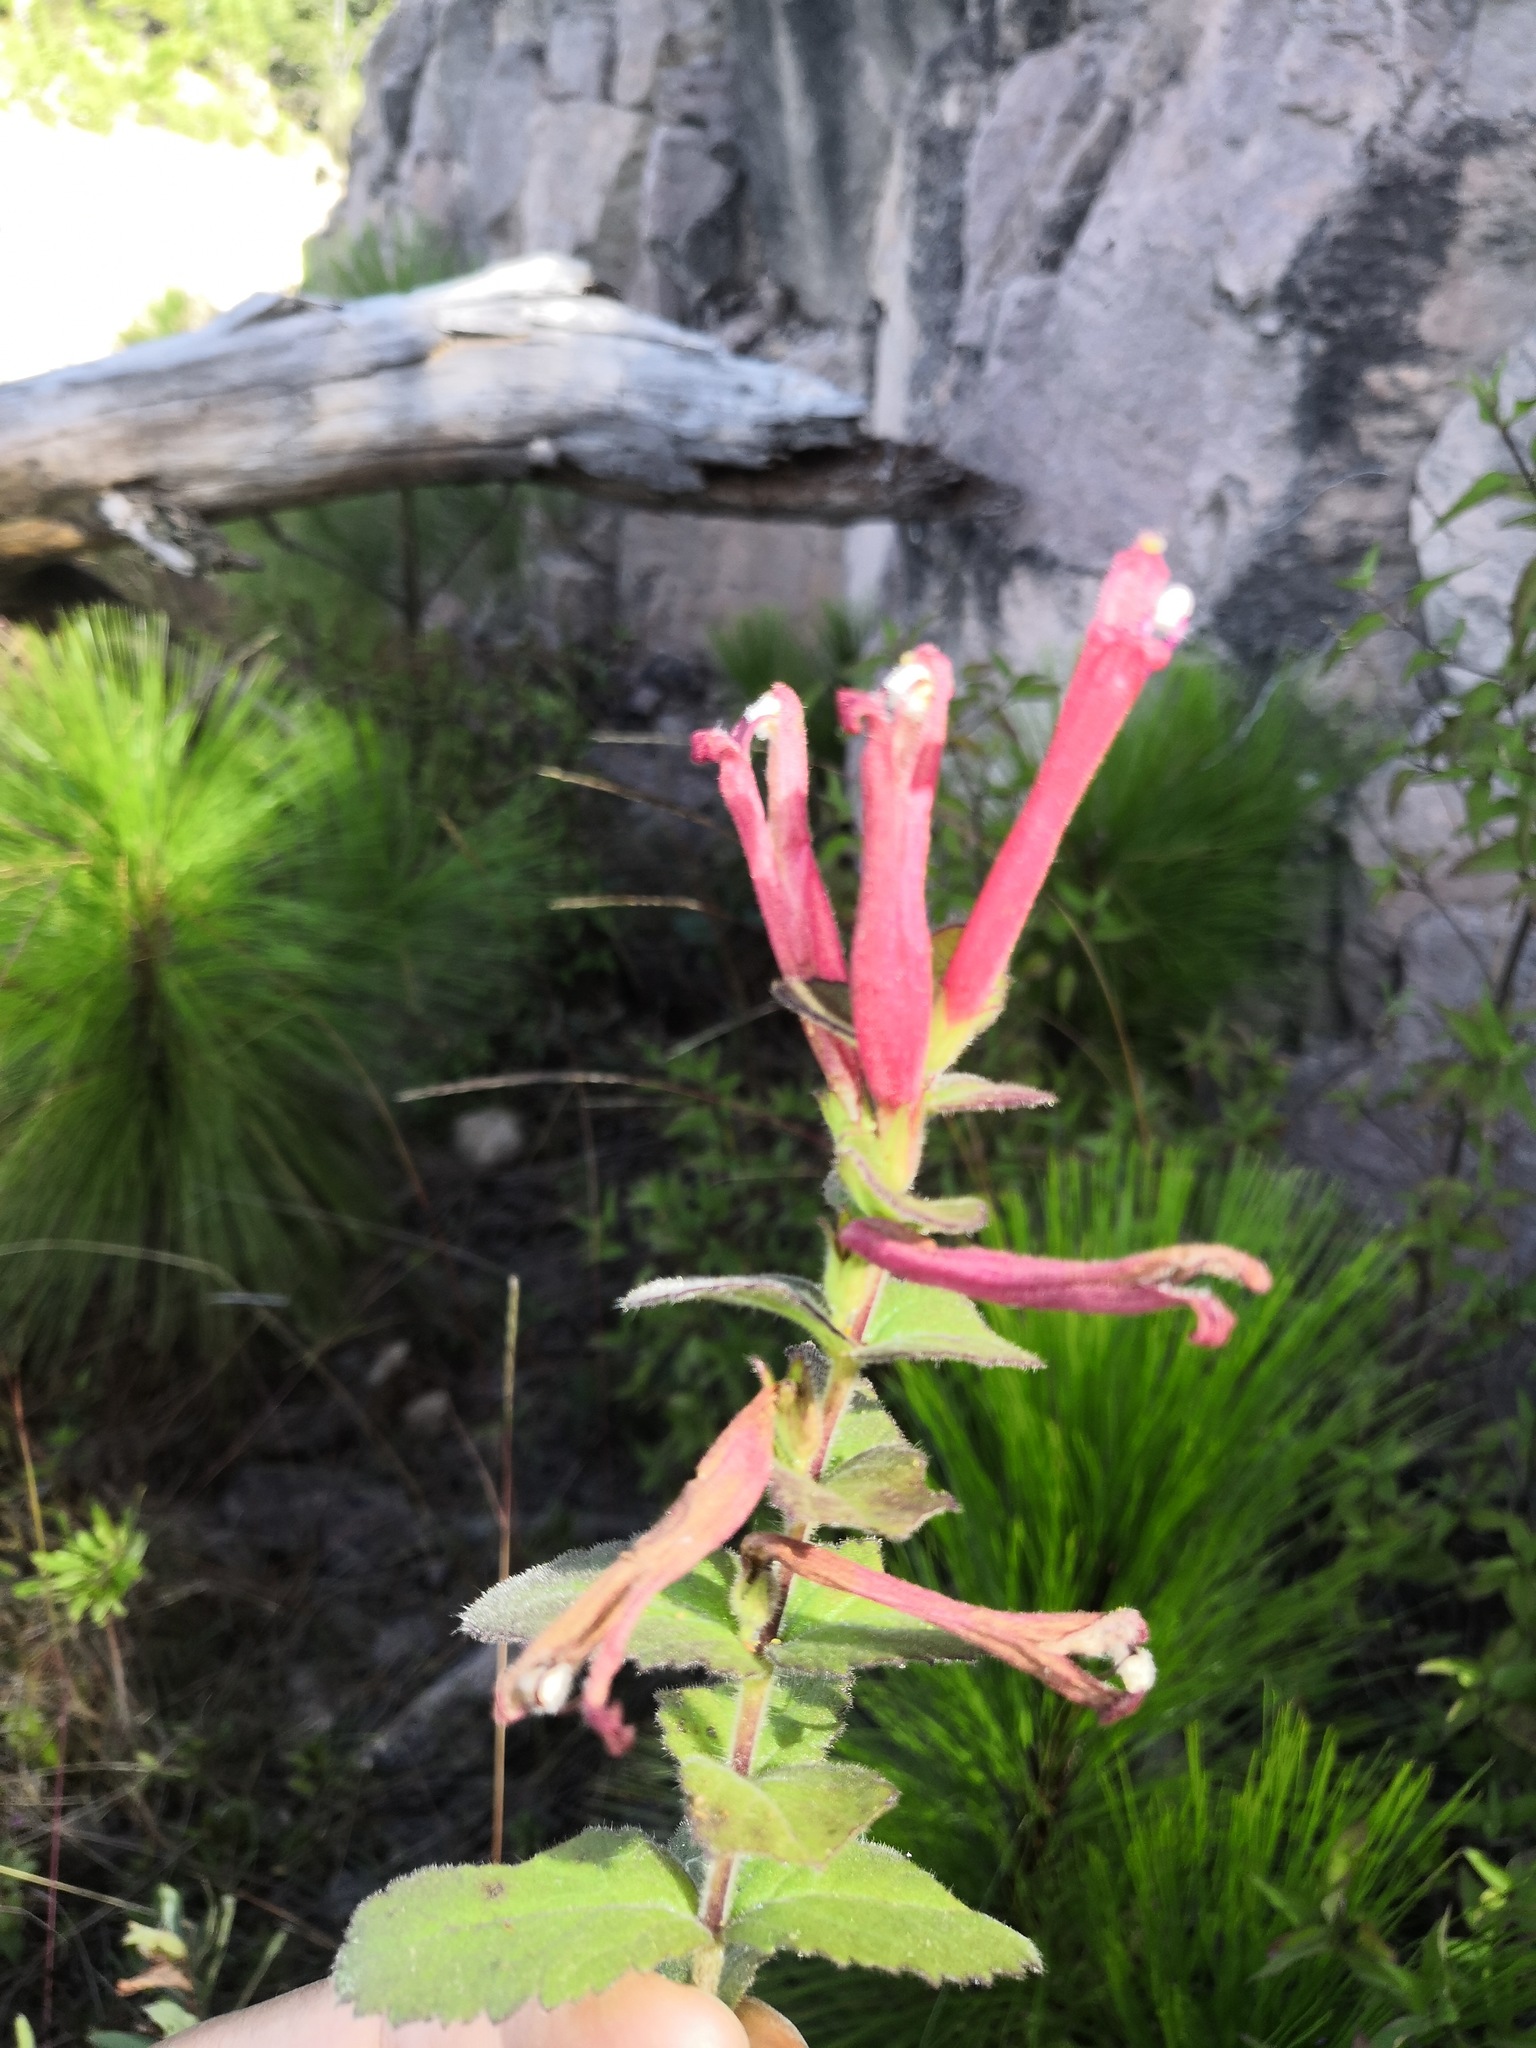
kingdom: Plantae
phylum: Tracheophyta
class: Magnoliopsida
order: Lamiales
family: Orobanchaceae
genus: Lamourouxia
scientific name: Lamourouxia avendanoi
